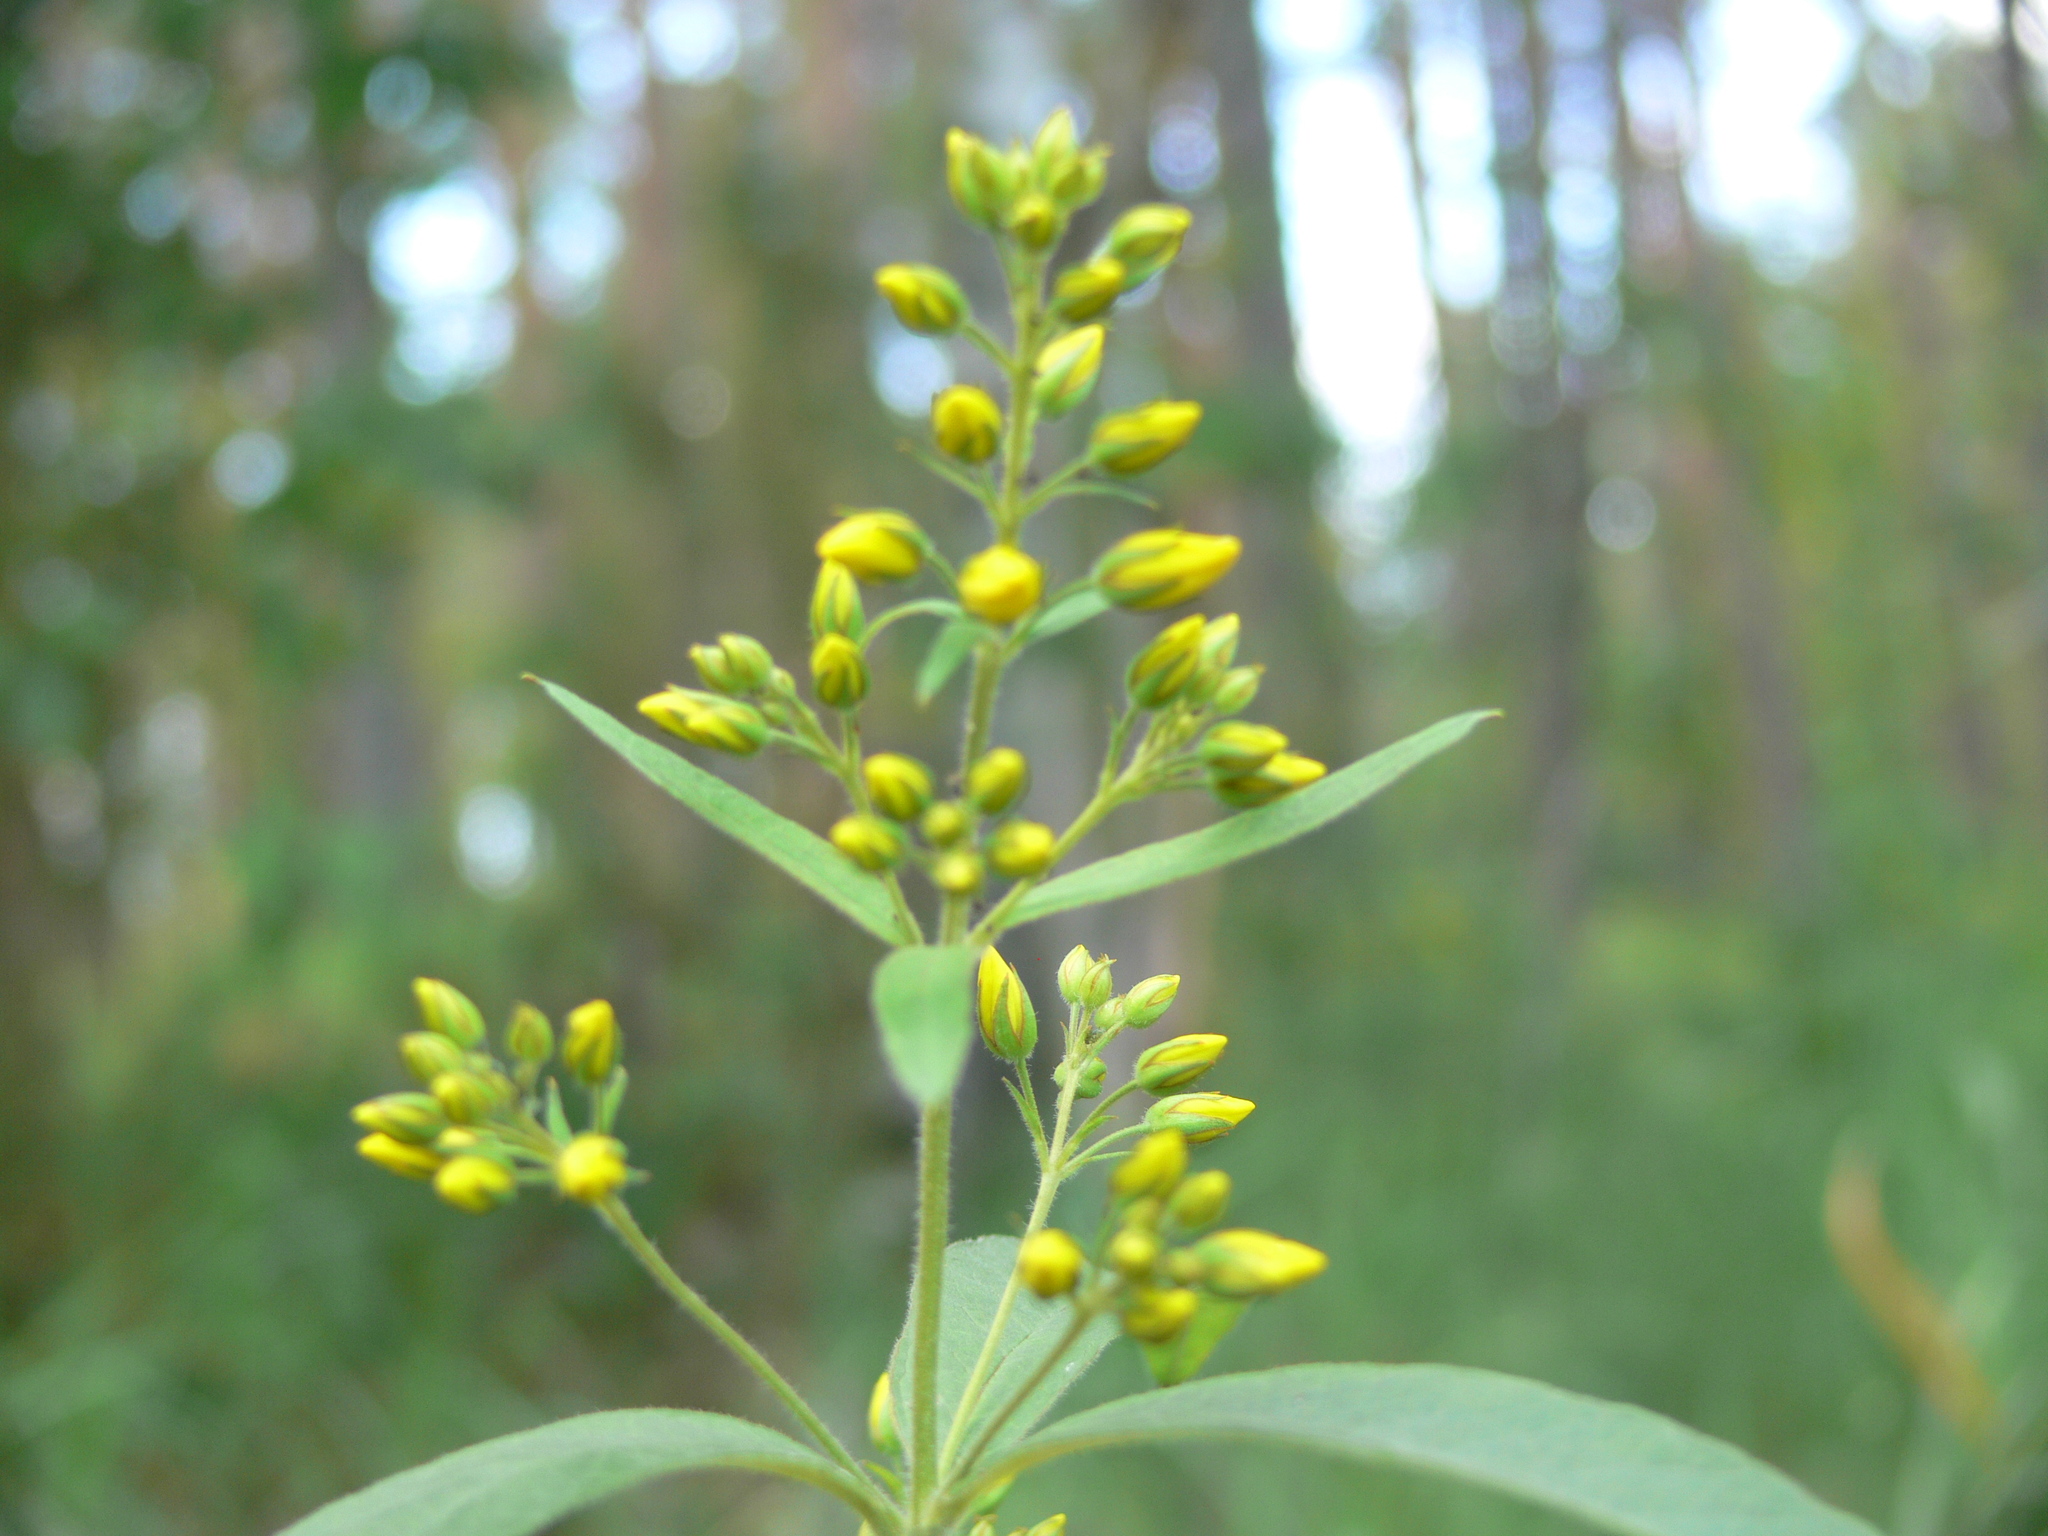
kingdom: Plantae
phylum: Tracheophyta
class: Magnoliopsida
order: Ericales
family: Primulaceae
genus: Lysimachia
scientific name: Lysimachia vulgaris
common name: Yellow loosestrife
